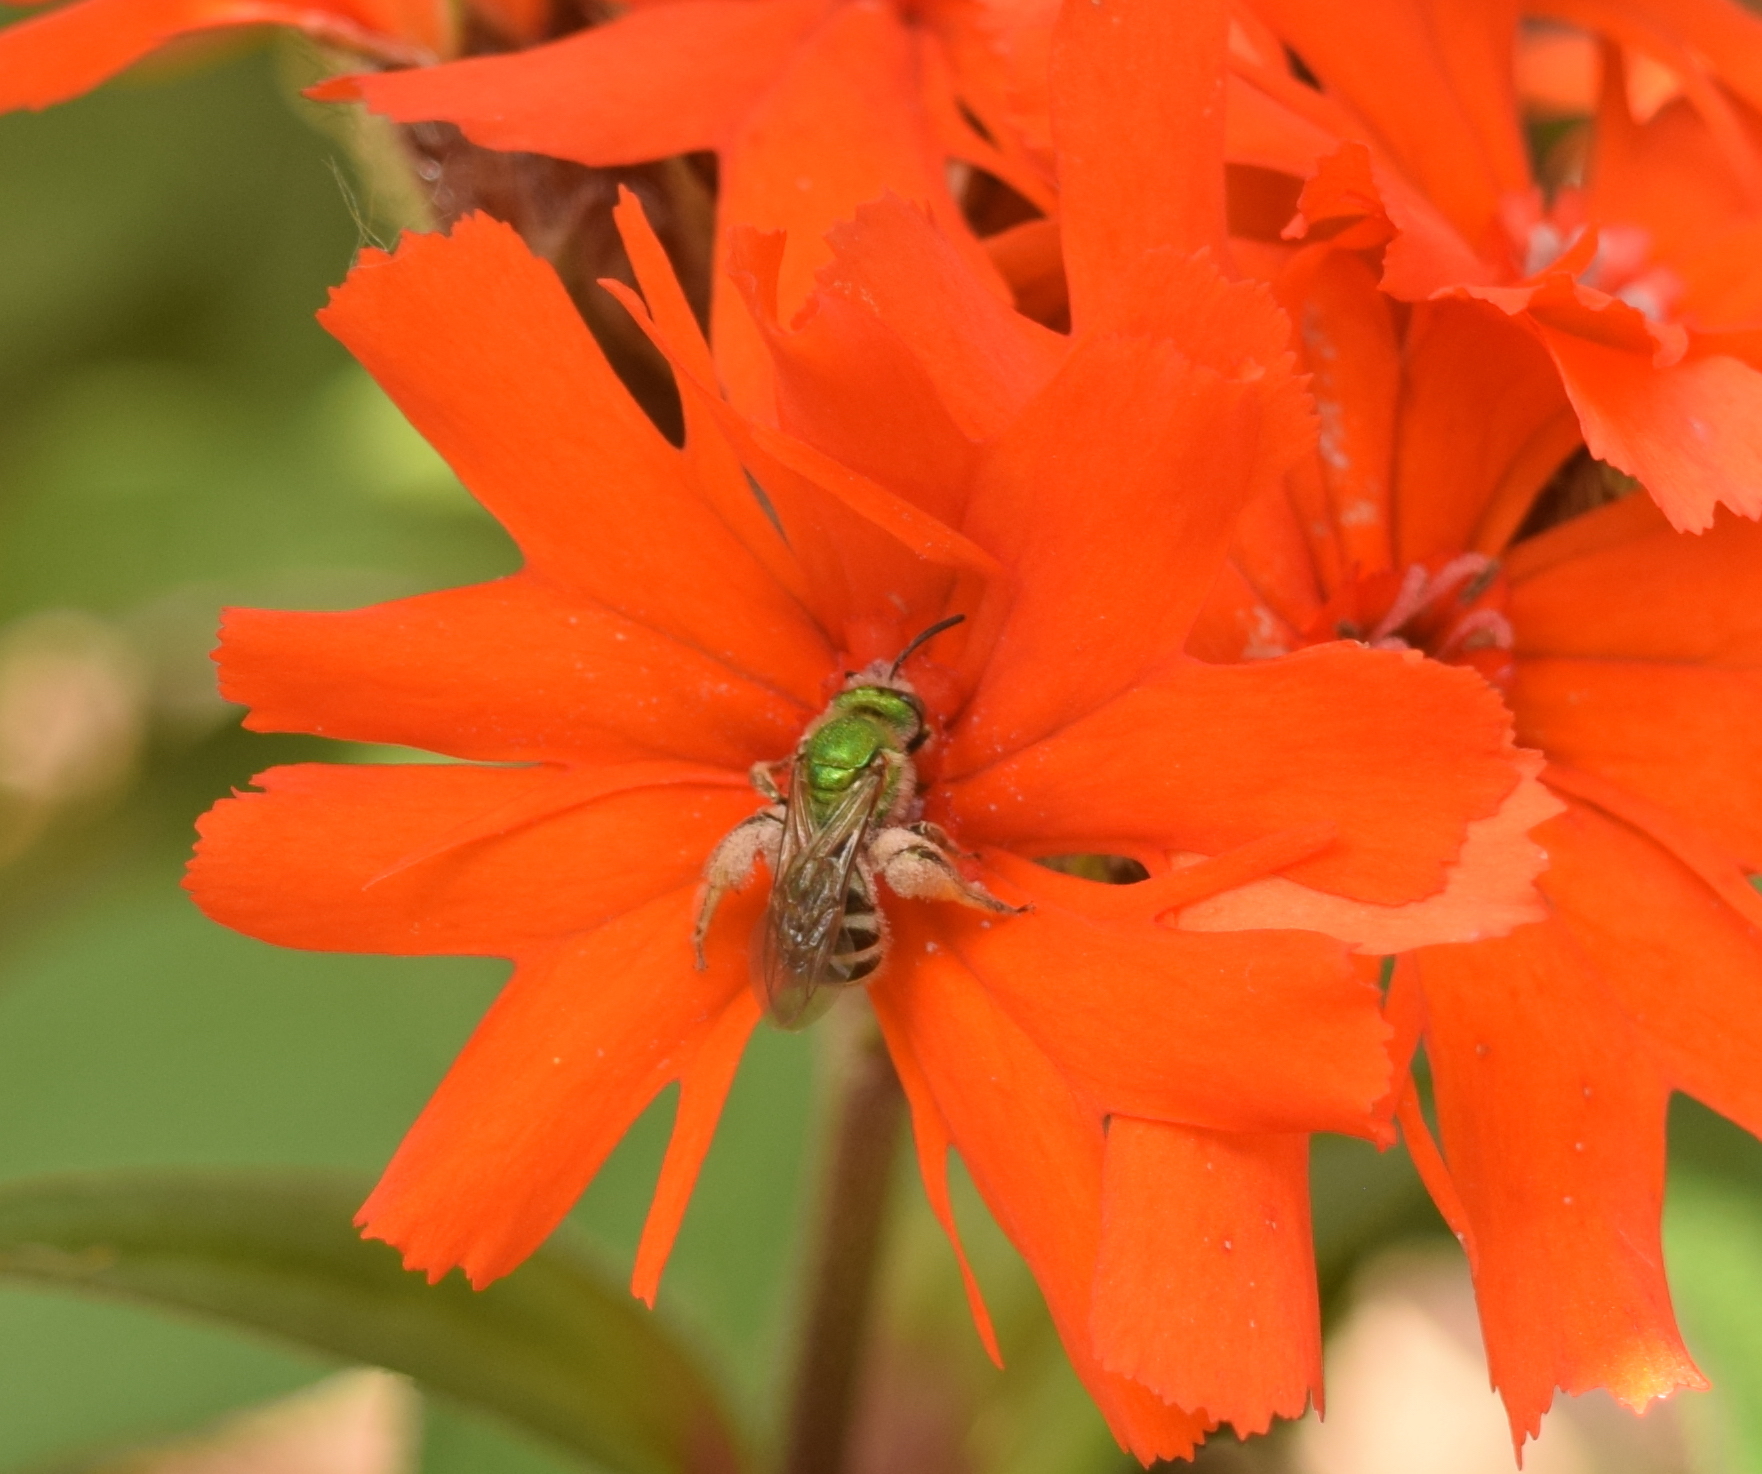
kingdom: Animalia
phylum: Arthropoda
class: Insecta
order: Hymenoptera
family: Halictidae
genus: Agapostemon
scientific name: Agapostemon virescens
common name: Bicolored striped sweat bee
